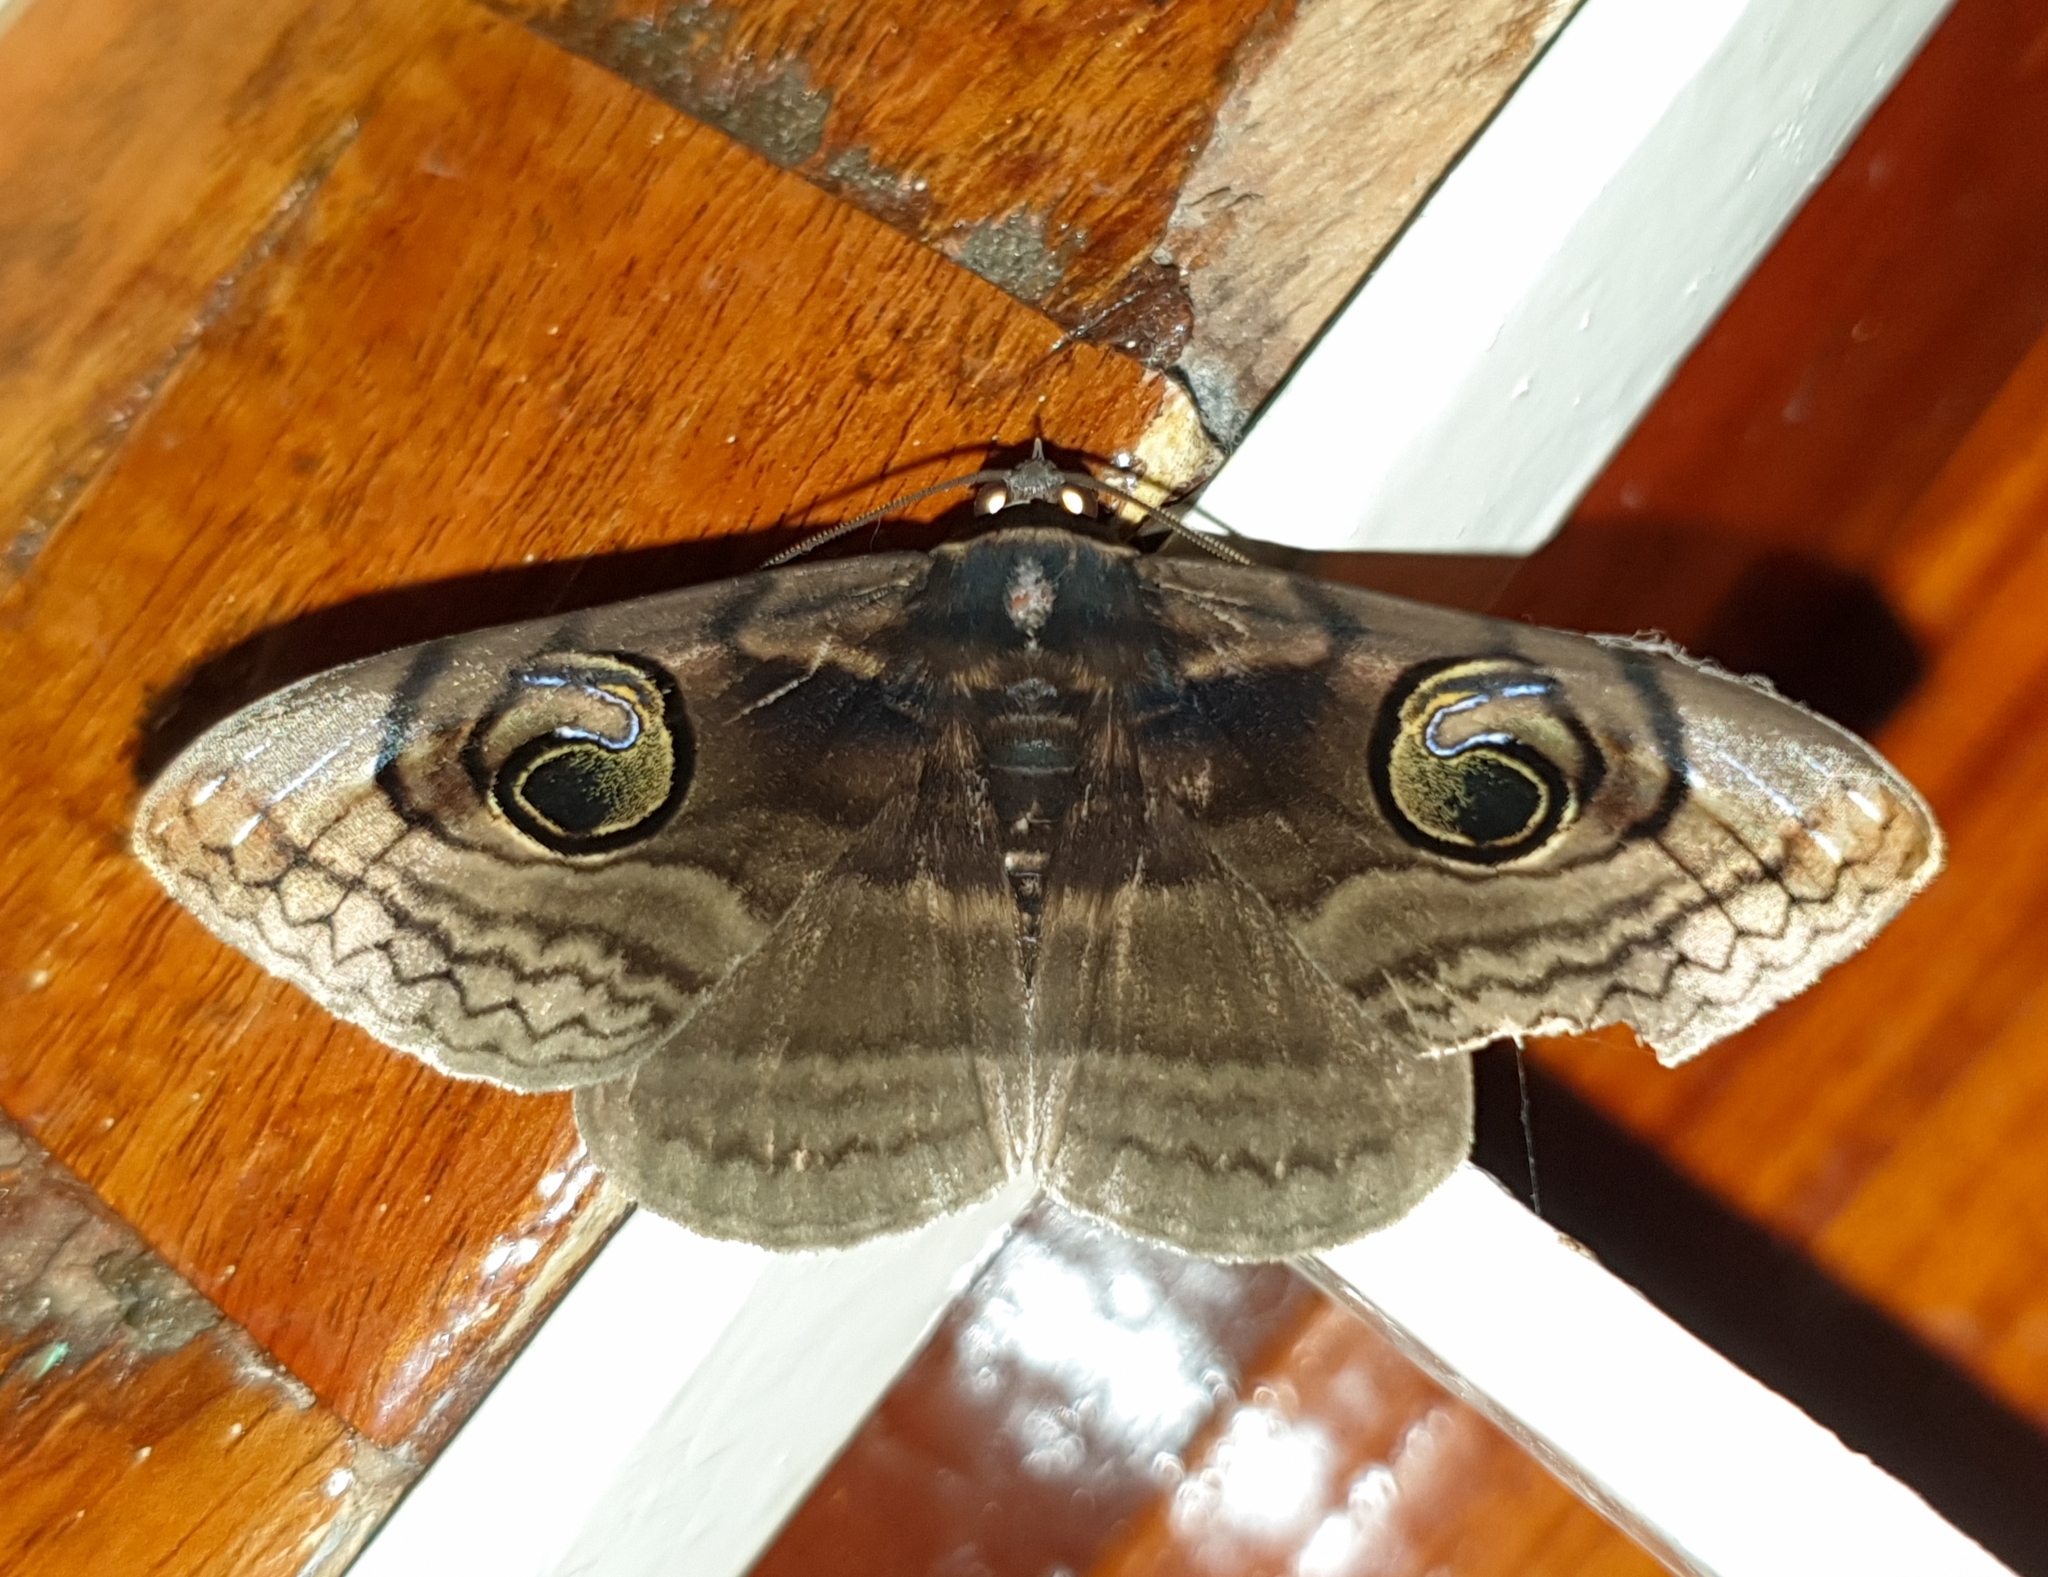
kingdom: Animalia
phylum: Arthropoda
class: Insecta
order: Lepidoptera
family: Erebidae
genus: Spirama
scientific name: Spirama retorta
